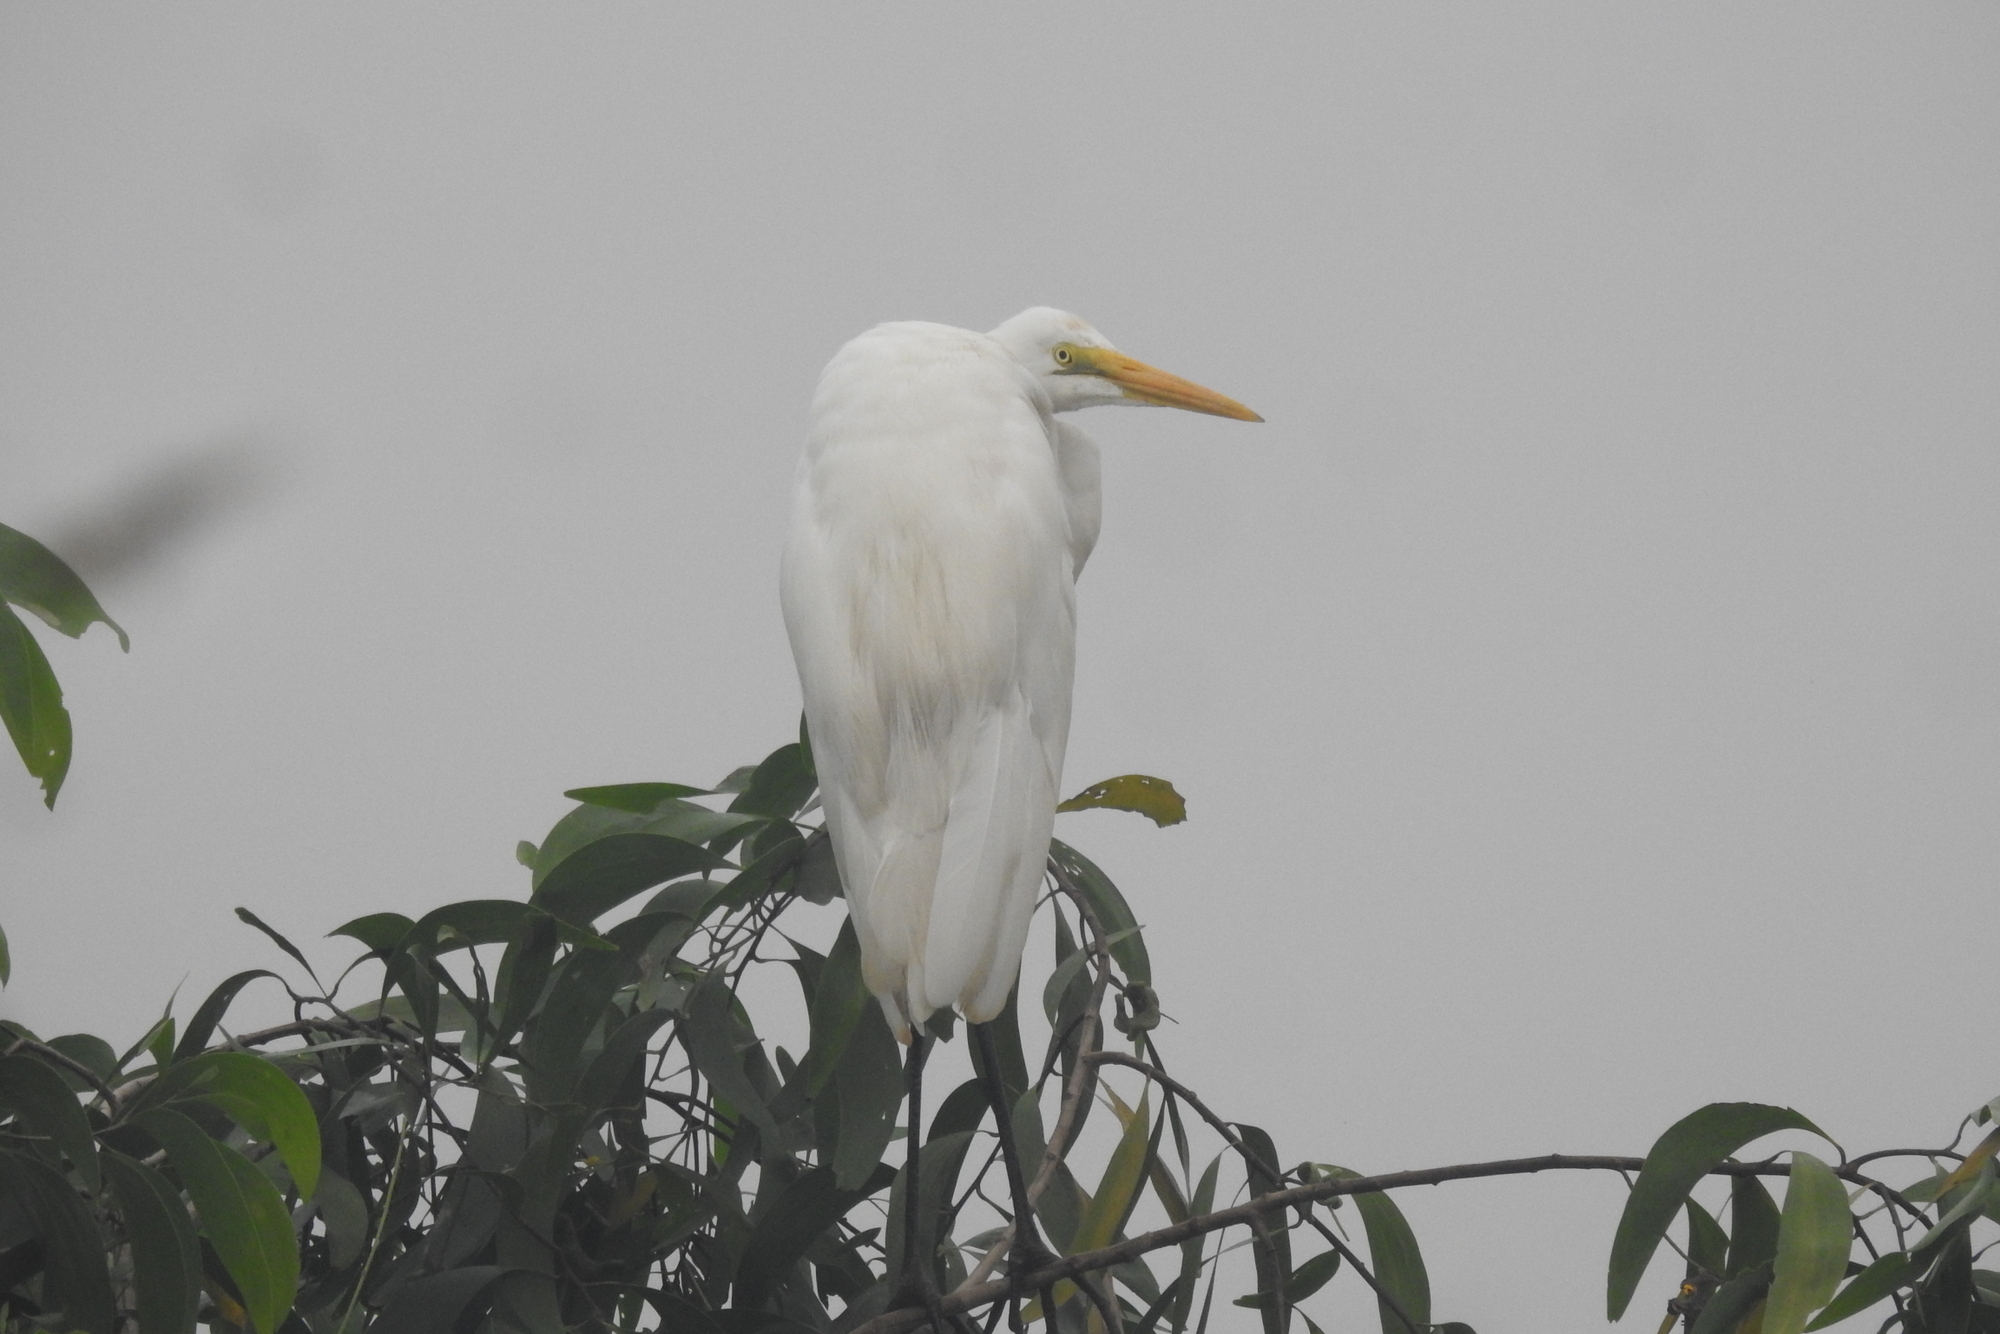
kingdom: Animalia
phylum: Chordata
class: Aves
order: Pelecaniformes
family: Ardeidae
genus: Ardea
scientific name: Ardea alba
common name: Great egret
